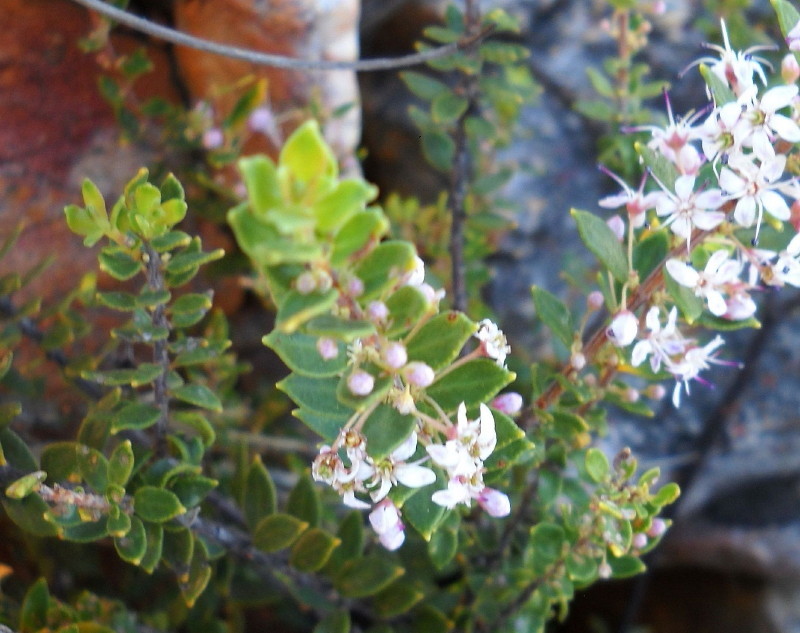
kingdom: Plantae
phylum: Tracheophyta
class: Magnoliopsida
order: Sapindales
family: Rutaceae
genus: Agathosma
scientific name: Agathosma ovata
